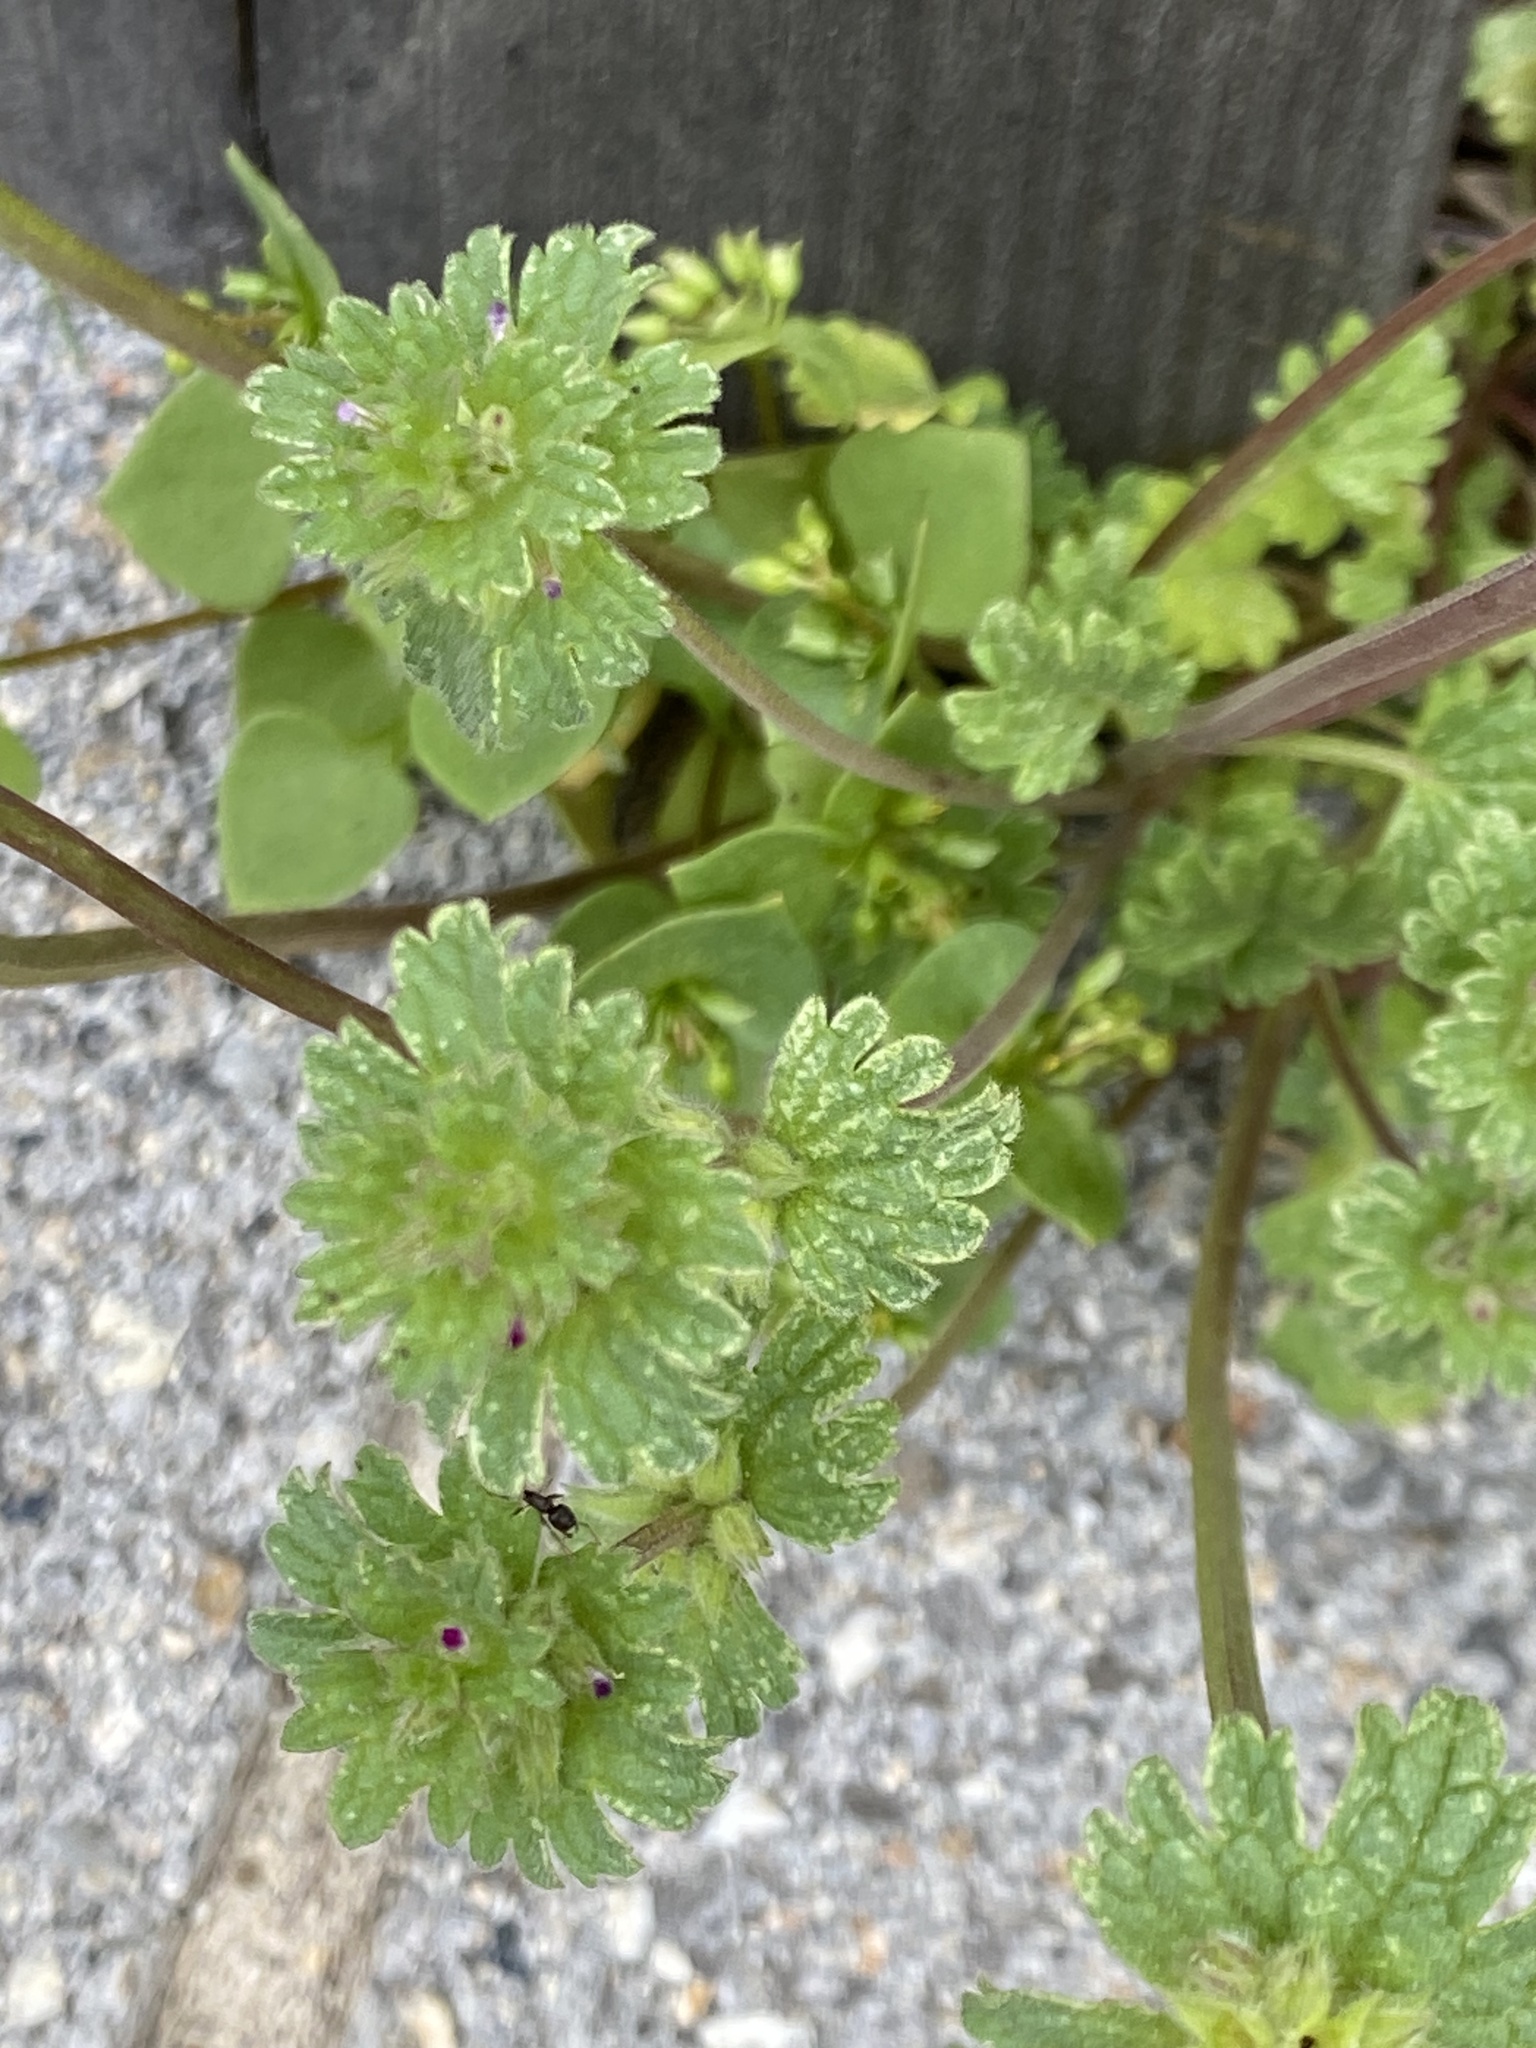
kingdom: Plantae
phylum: Tracheophyta
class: Magnoliopsida
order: Lamiales
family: Lamiaceae
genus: Lamium
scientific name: Lamium amplexicaule
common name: Henbit dead-nettle
